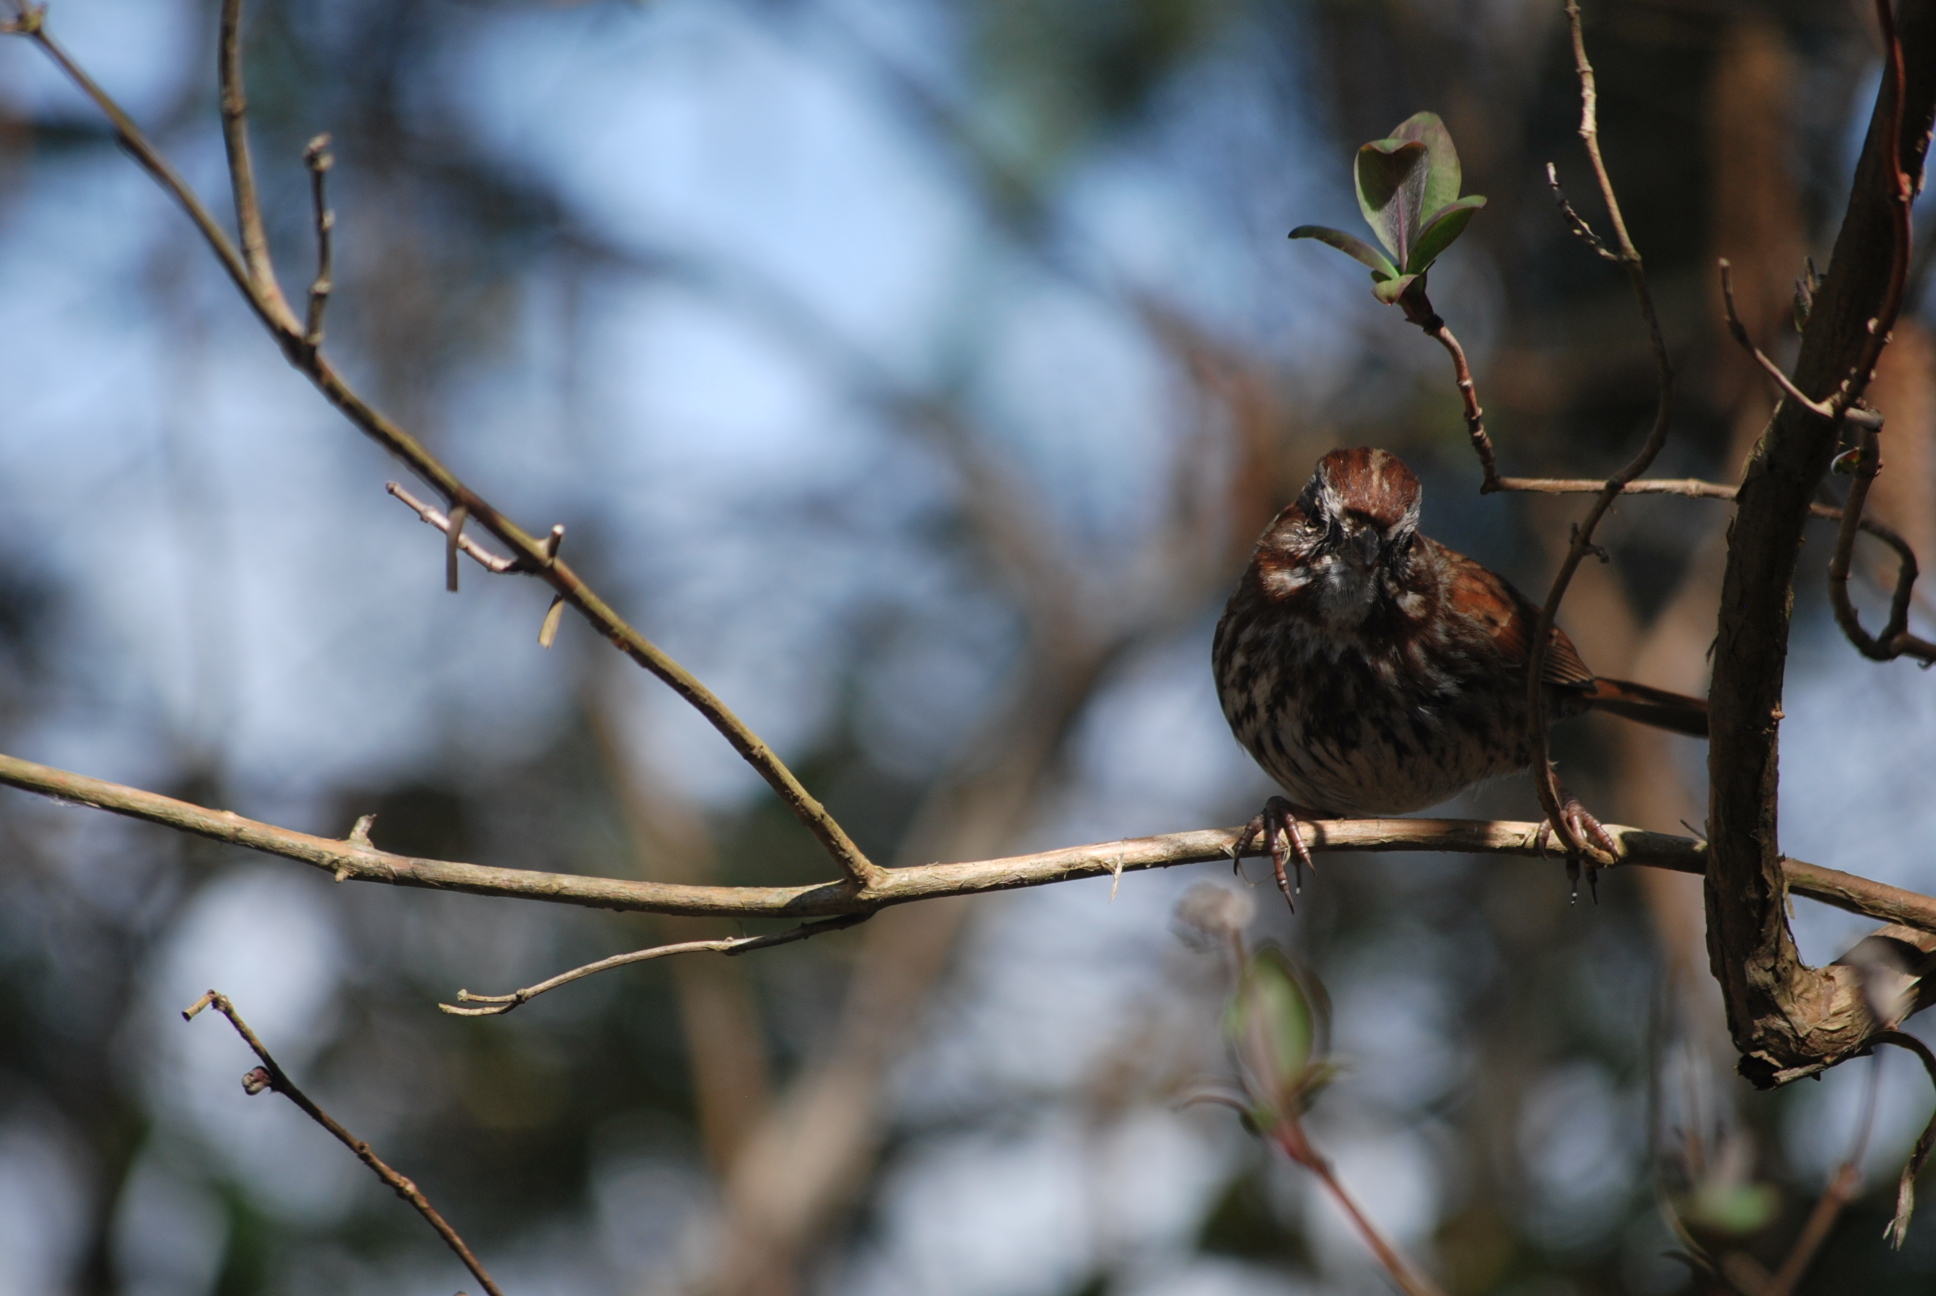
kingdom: Animalia
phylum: Chordata
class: Aves
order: Passeriformes
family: Passerellidae
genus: Melospiza
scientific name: Melospiza melodia
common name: Song sparrow
